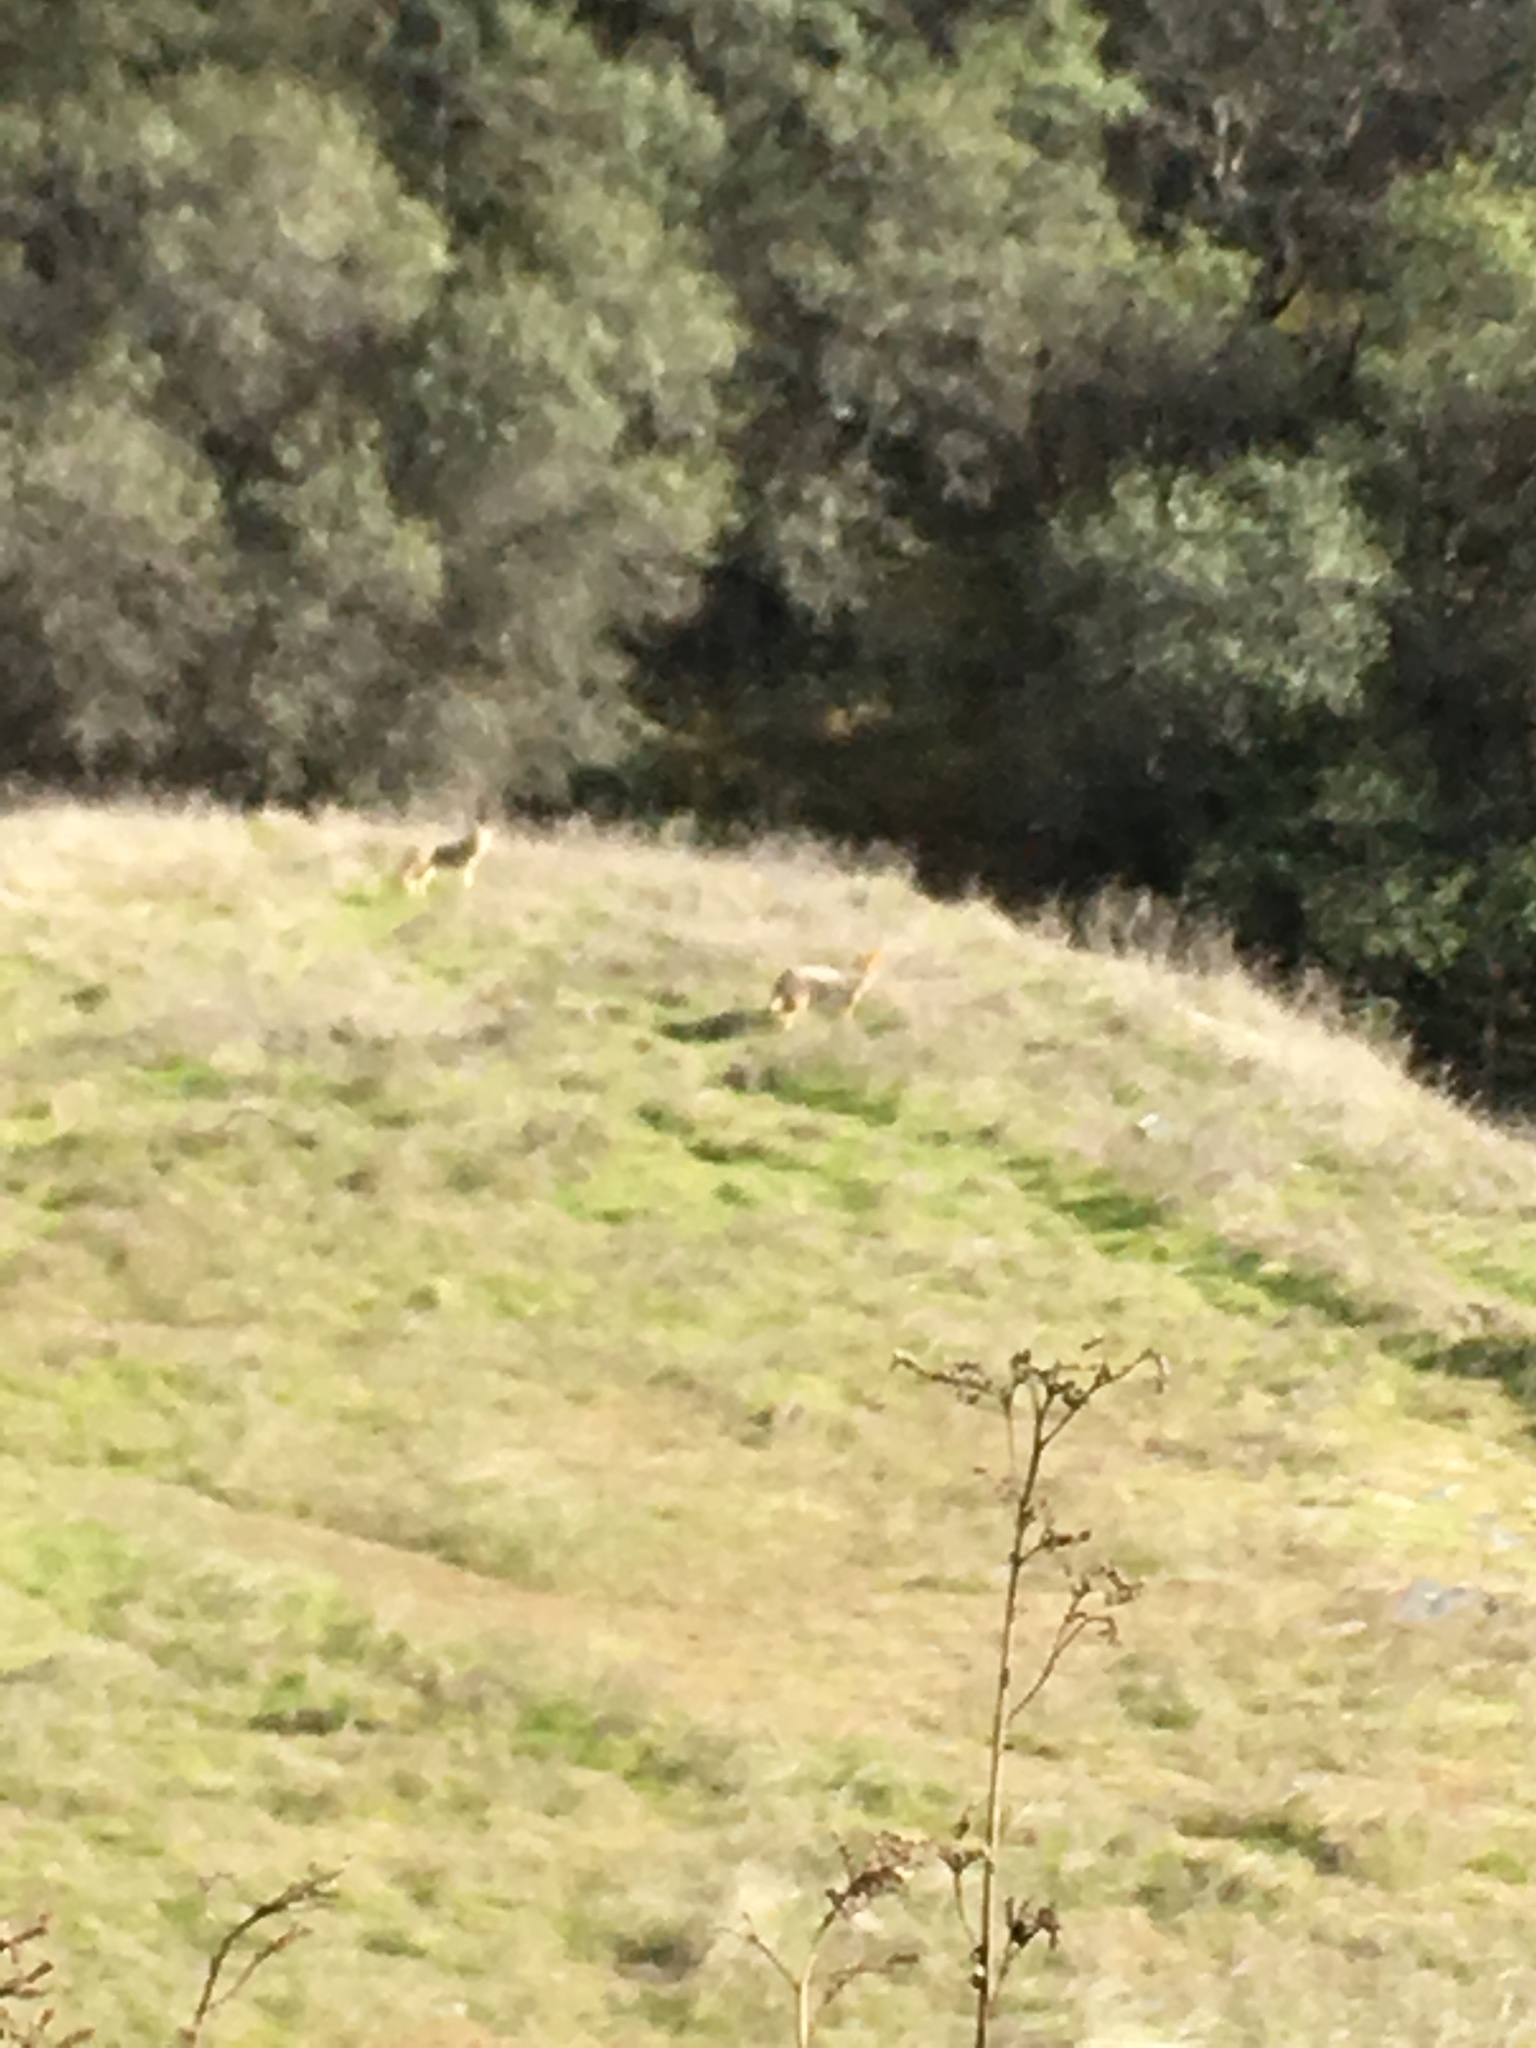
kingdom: Animalia
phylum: Chordata
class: Mammalia
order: Carnivora
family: Canidae
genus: Canis
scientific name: Canis latrans
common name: Coyote
